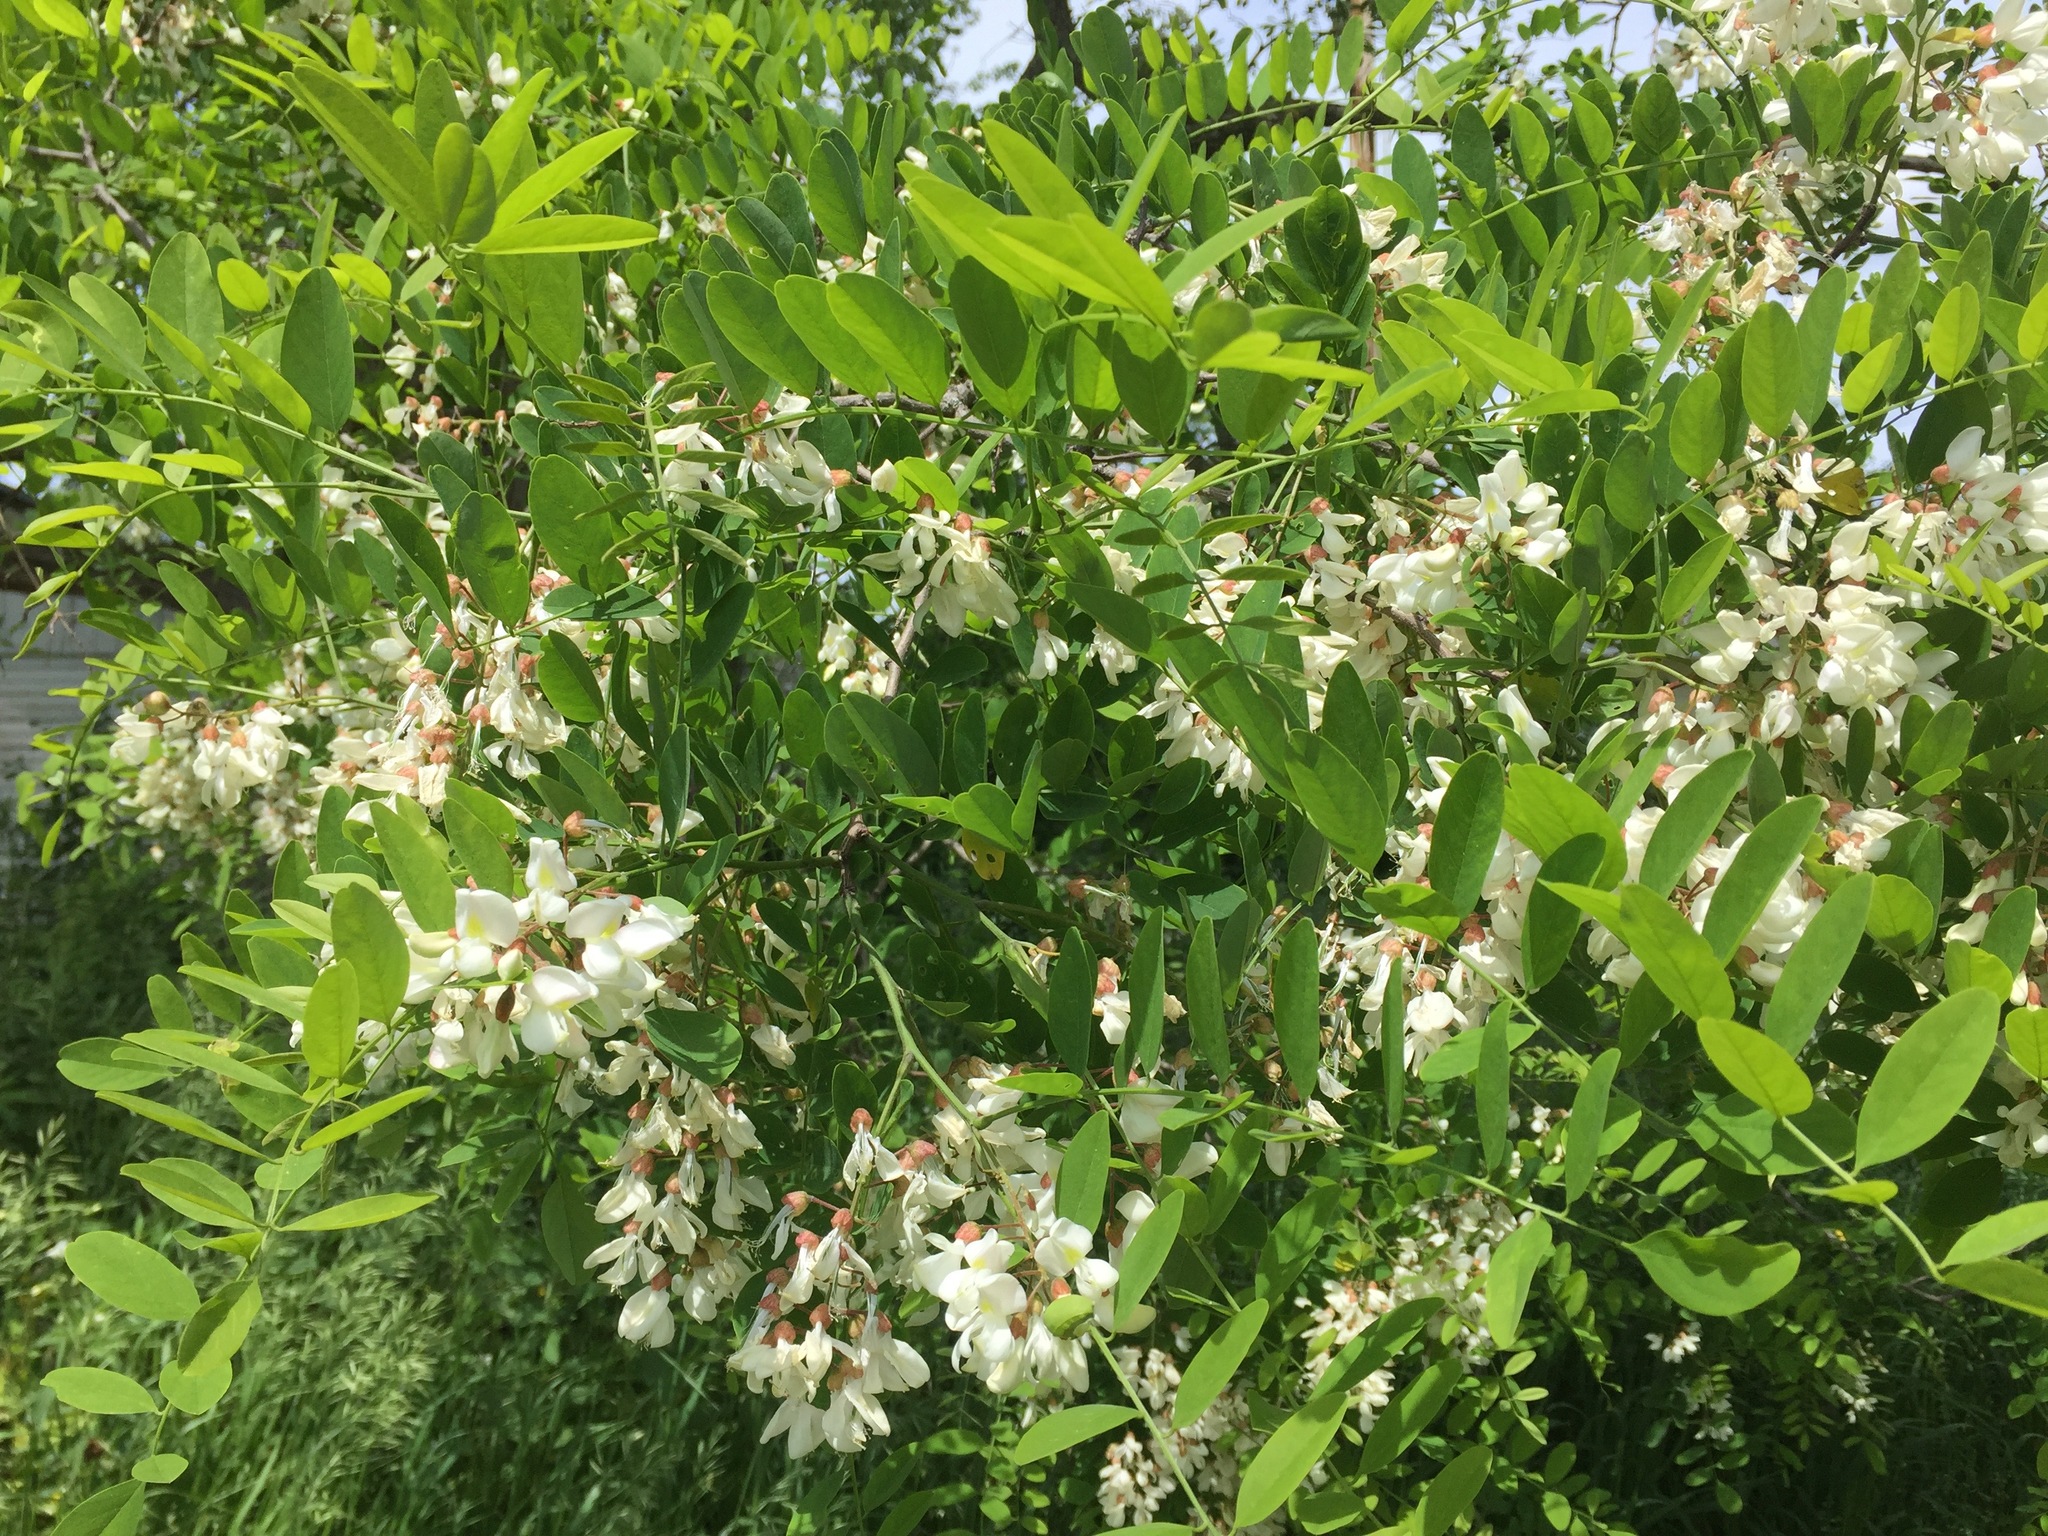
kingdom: Plantae
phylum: Tracheophyta
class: Magnoliopsida
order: Fabales
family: Fabaceae
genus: Robinia
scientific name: Robinia pseudoacacia
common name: Black locust
